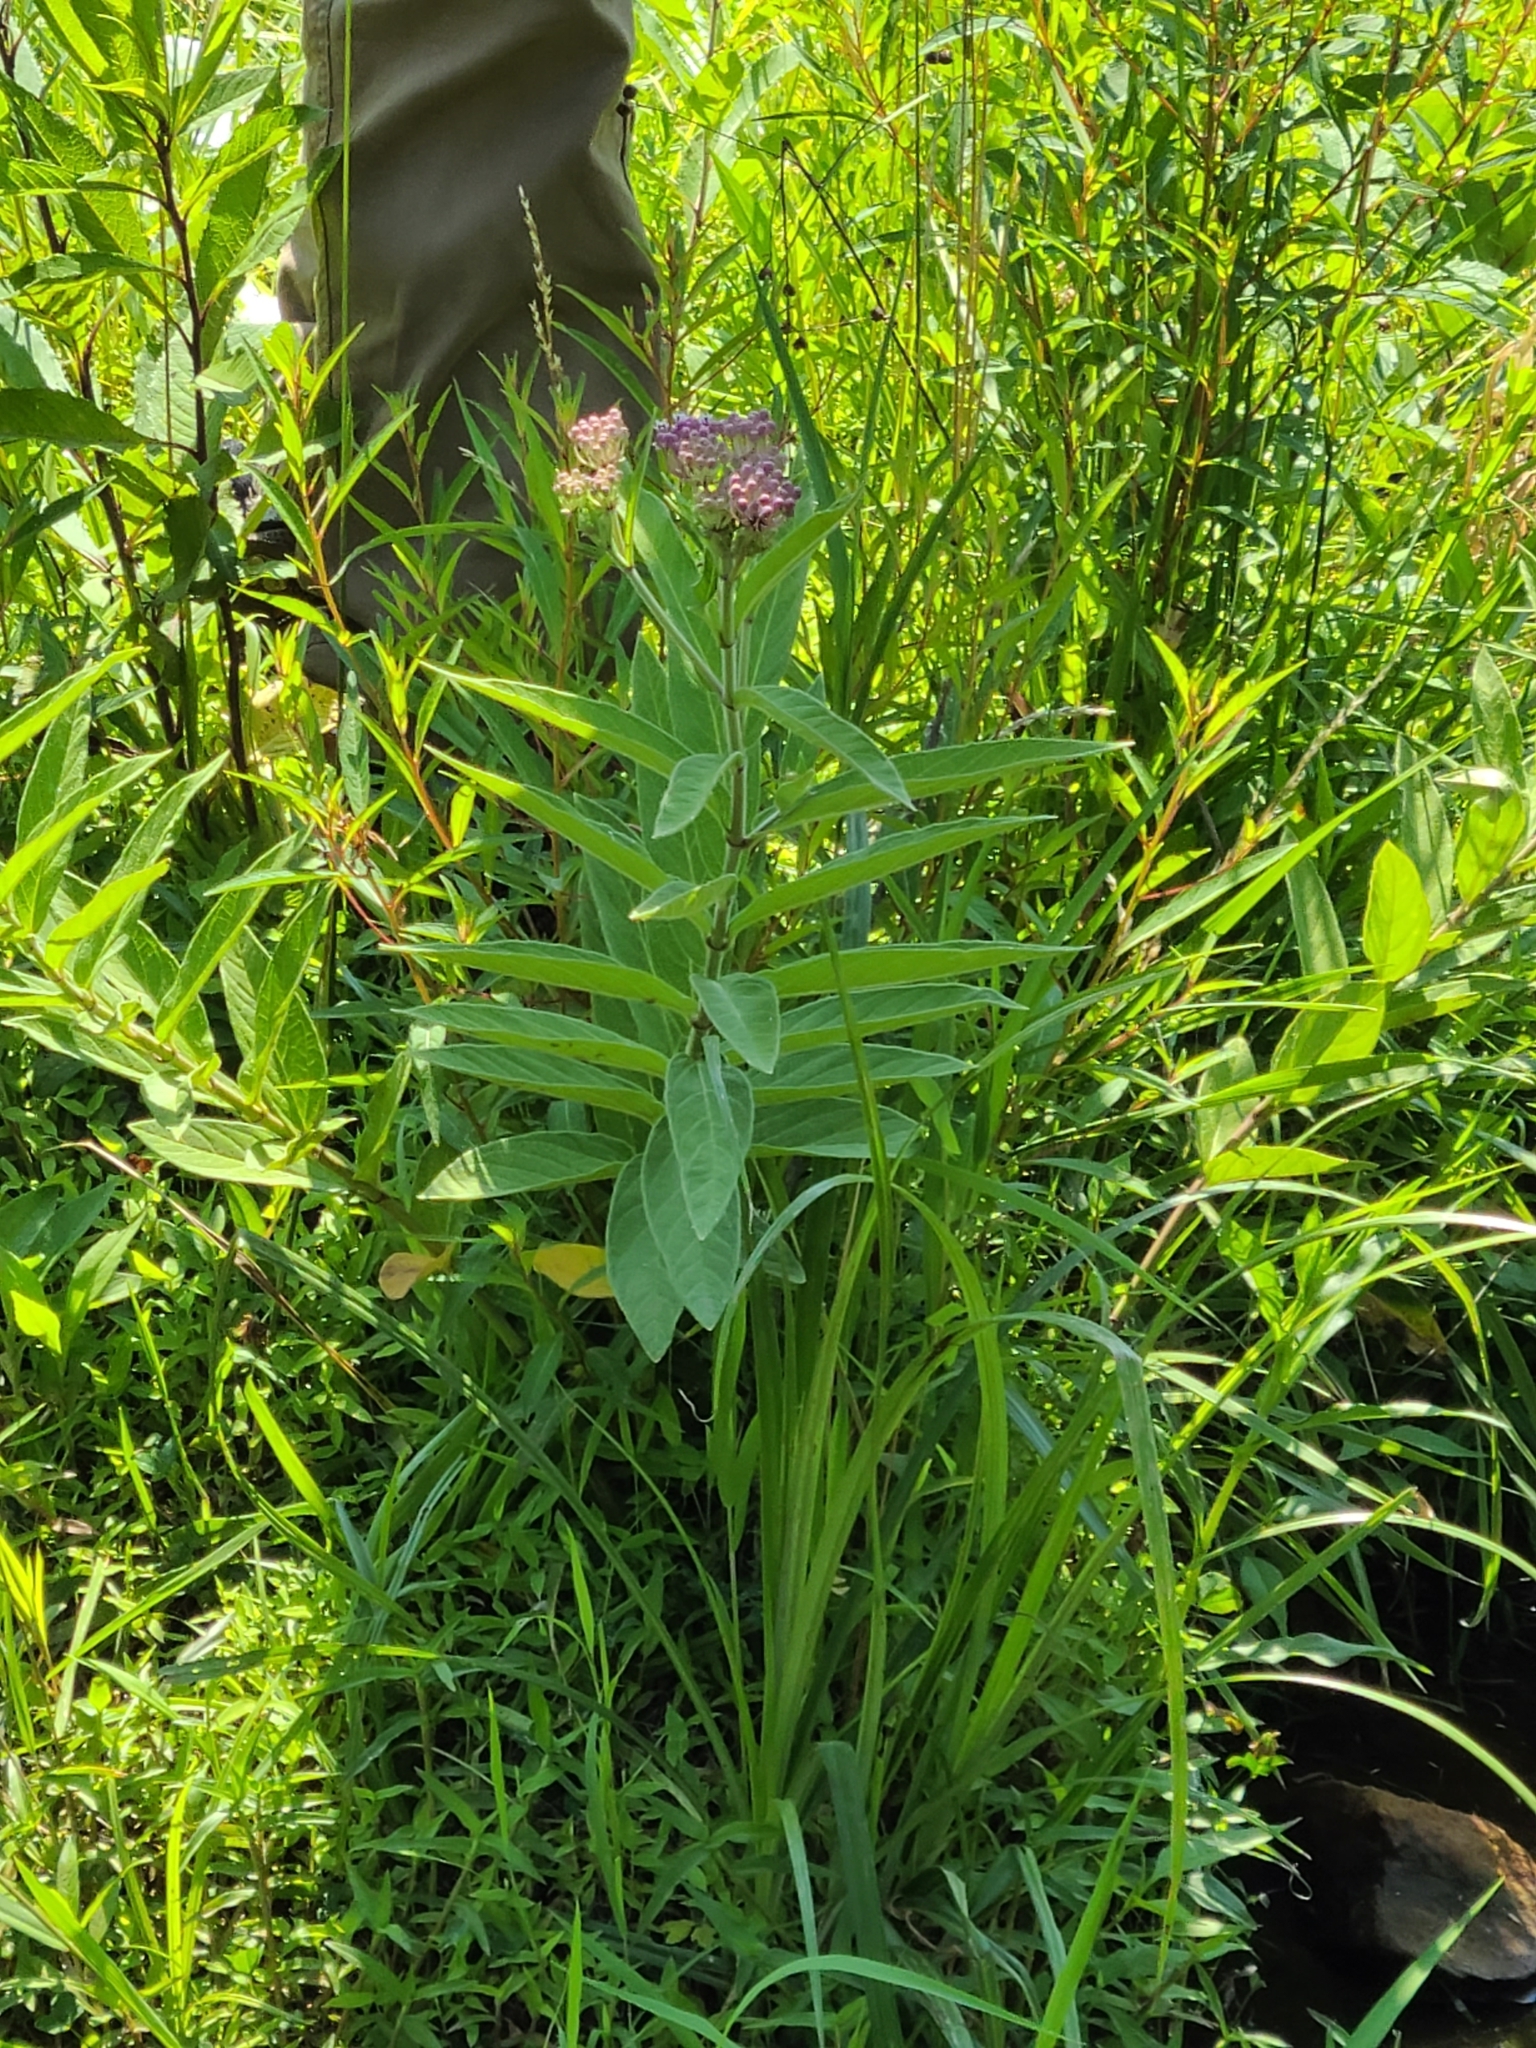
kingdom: Plantae
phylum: Tracheophyta
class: Magnoliopsida
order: Gentianales
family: Apocynaceae
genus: Asclepias
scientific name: Asclepias incarnata
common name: Swamp milkweed
